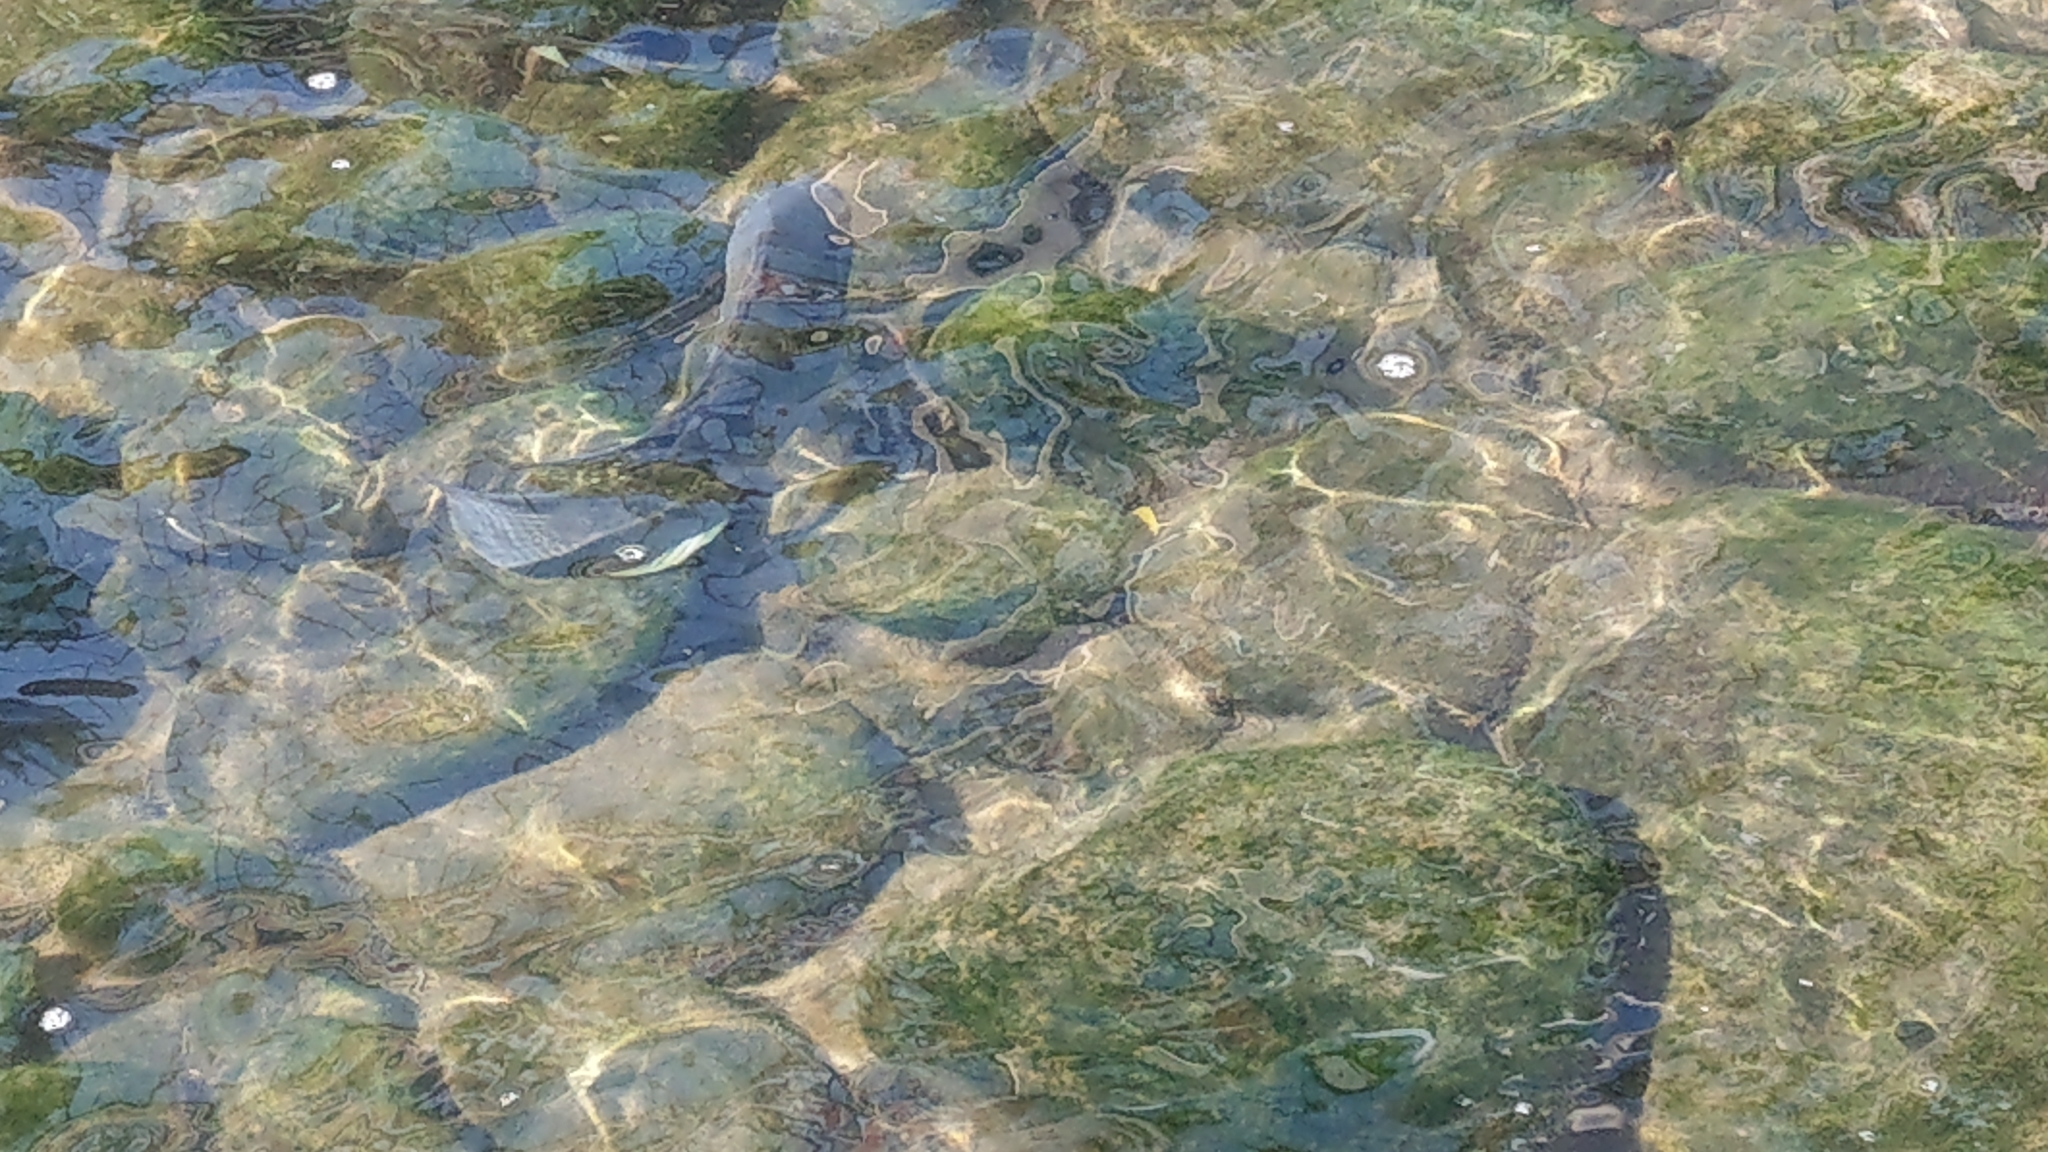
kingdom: Animalia
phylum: Chordata
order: Perciformes
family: Cichlidae
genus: Oreochromis
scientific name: Oreochromis mossambicus
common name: Mozambique tilapia
